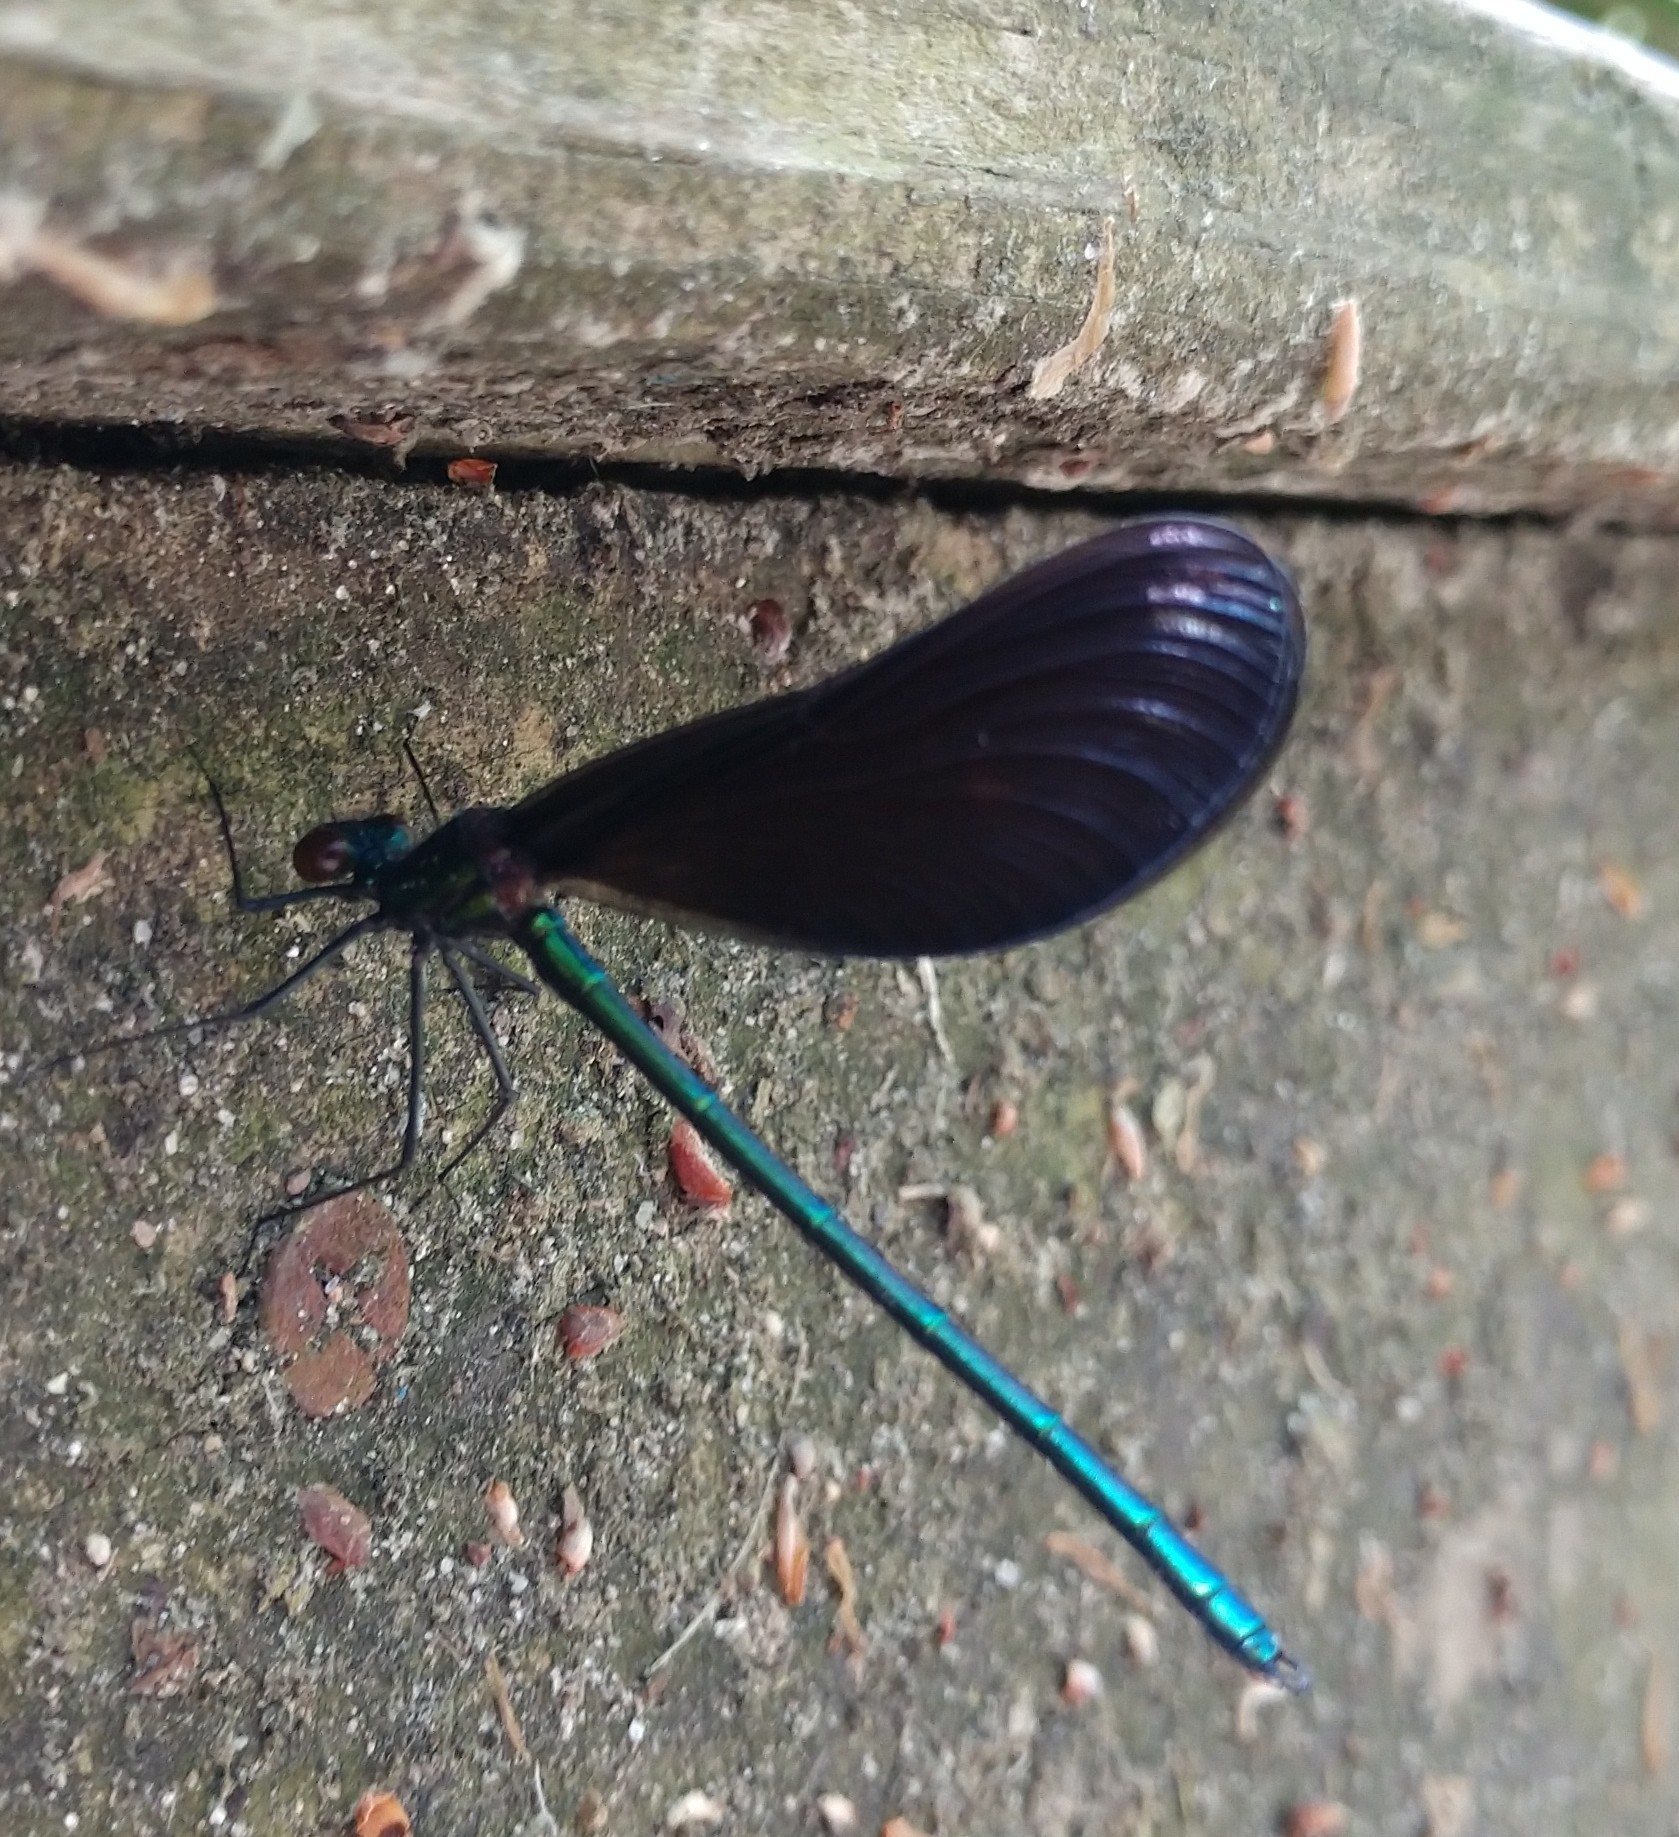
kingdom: Animalia
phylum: Arthropoda
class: Insecta
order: Odonata
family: Calopterygidae
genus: Calopteryx
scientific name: Calopteryx maculata
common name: Ebony jewelwing
